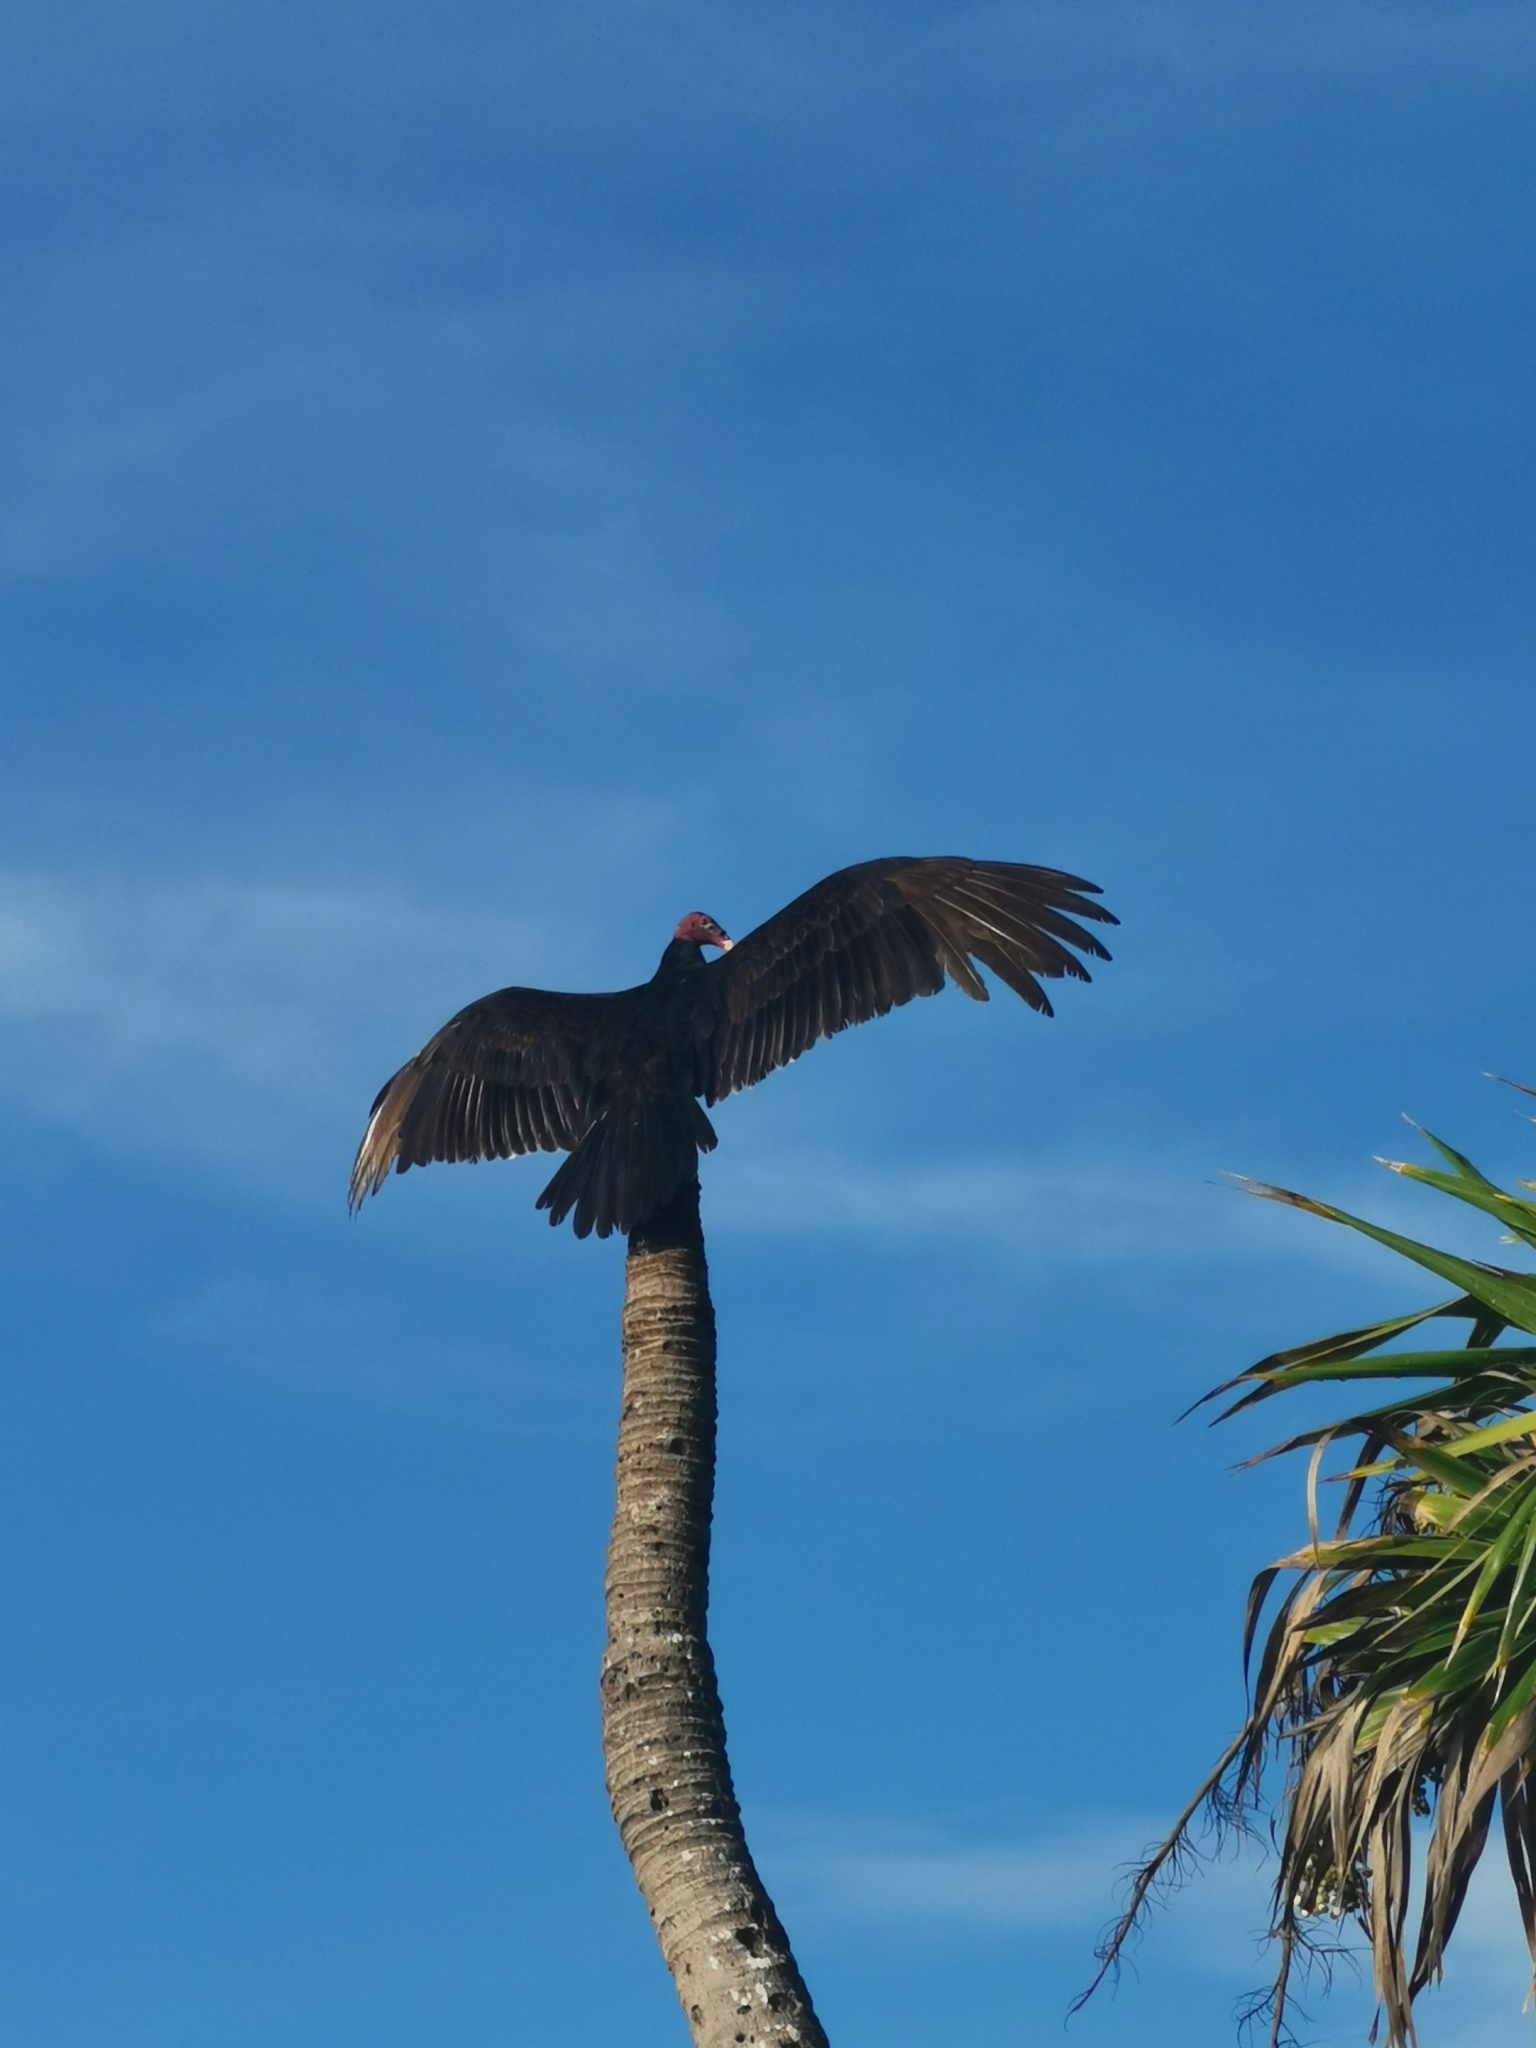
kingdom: Animalia
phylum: Chordata
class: Aves
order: Accipitriformes
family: Cathartidae
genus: Cathartes
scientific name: Cathartes aura
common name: Turkey vulture
